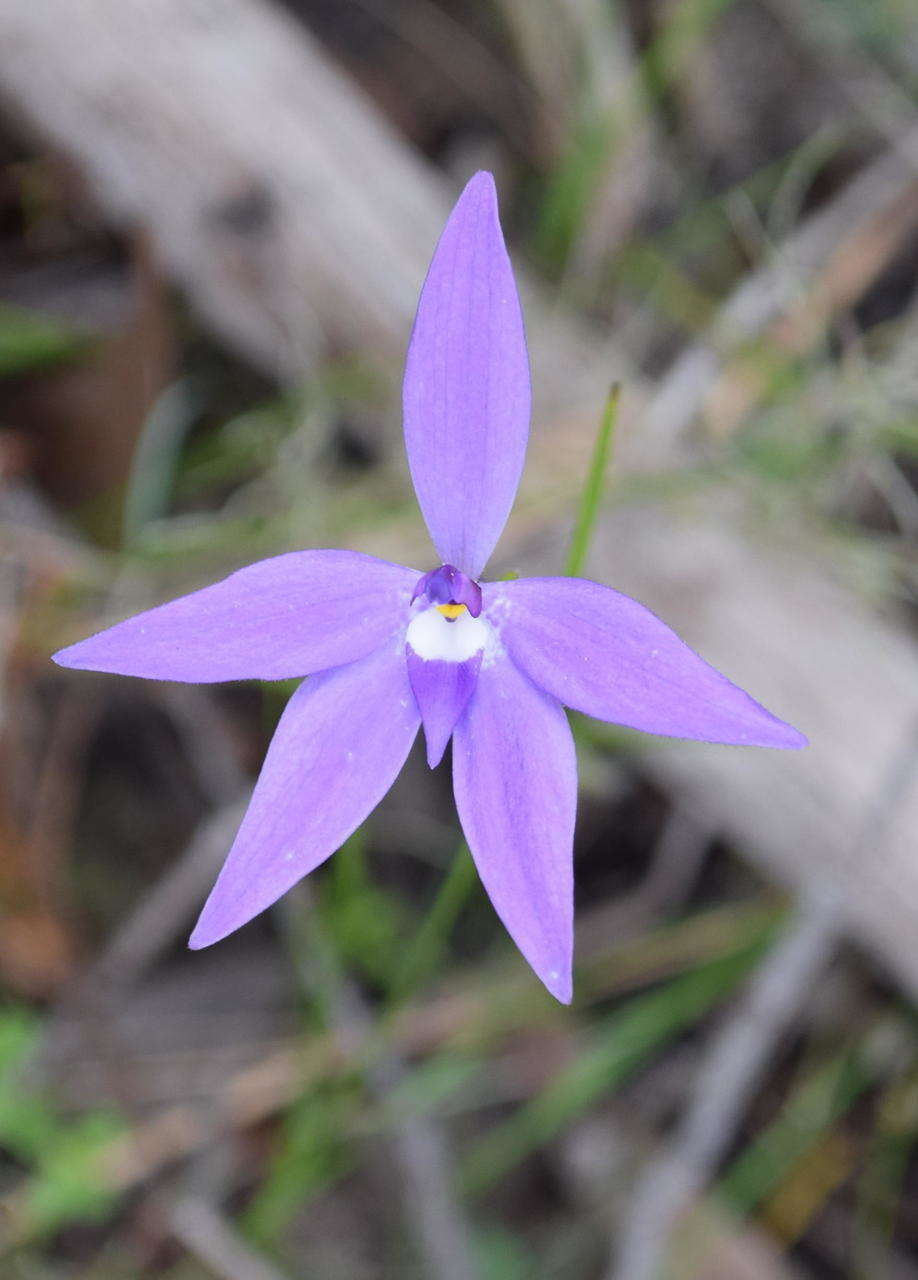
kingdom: Plantae
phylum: Tracheophyta
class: Liliopsida
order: Asparagales
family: Orchidaceae
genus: Caladenia
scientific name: Caladenia major
